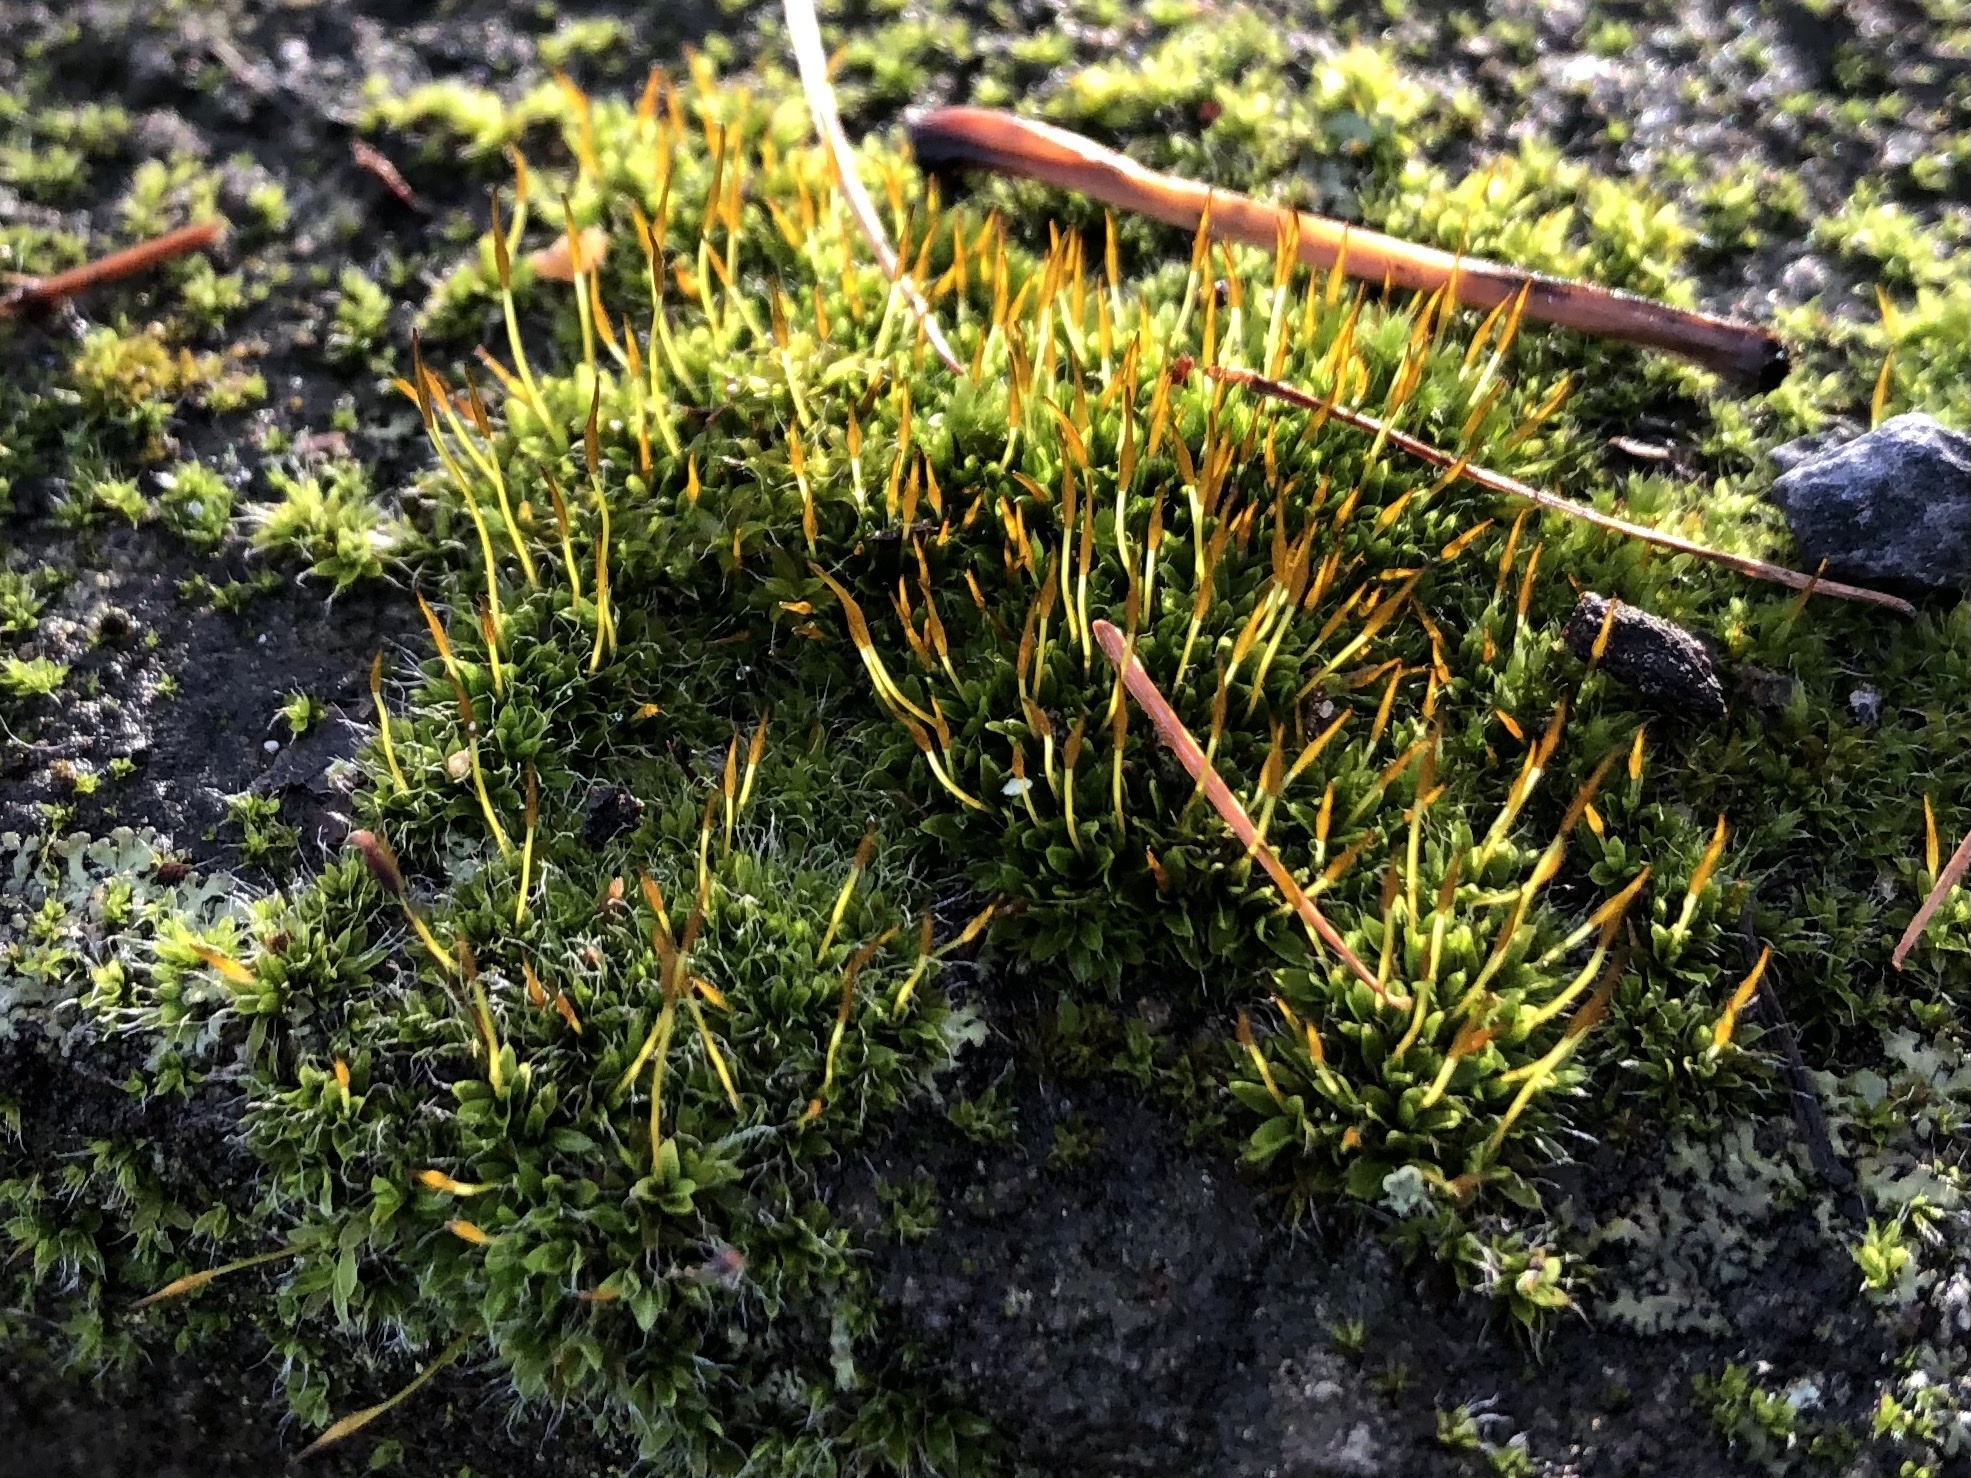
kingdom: Plantae
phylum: Bryophyta
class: Bryopsida
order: Pottiales
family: Pottiaceae
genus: Tortula
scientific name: Tortula muralis
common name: Wall screw-moss
